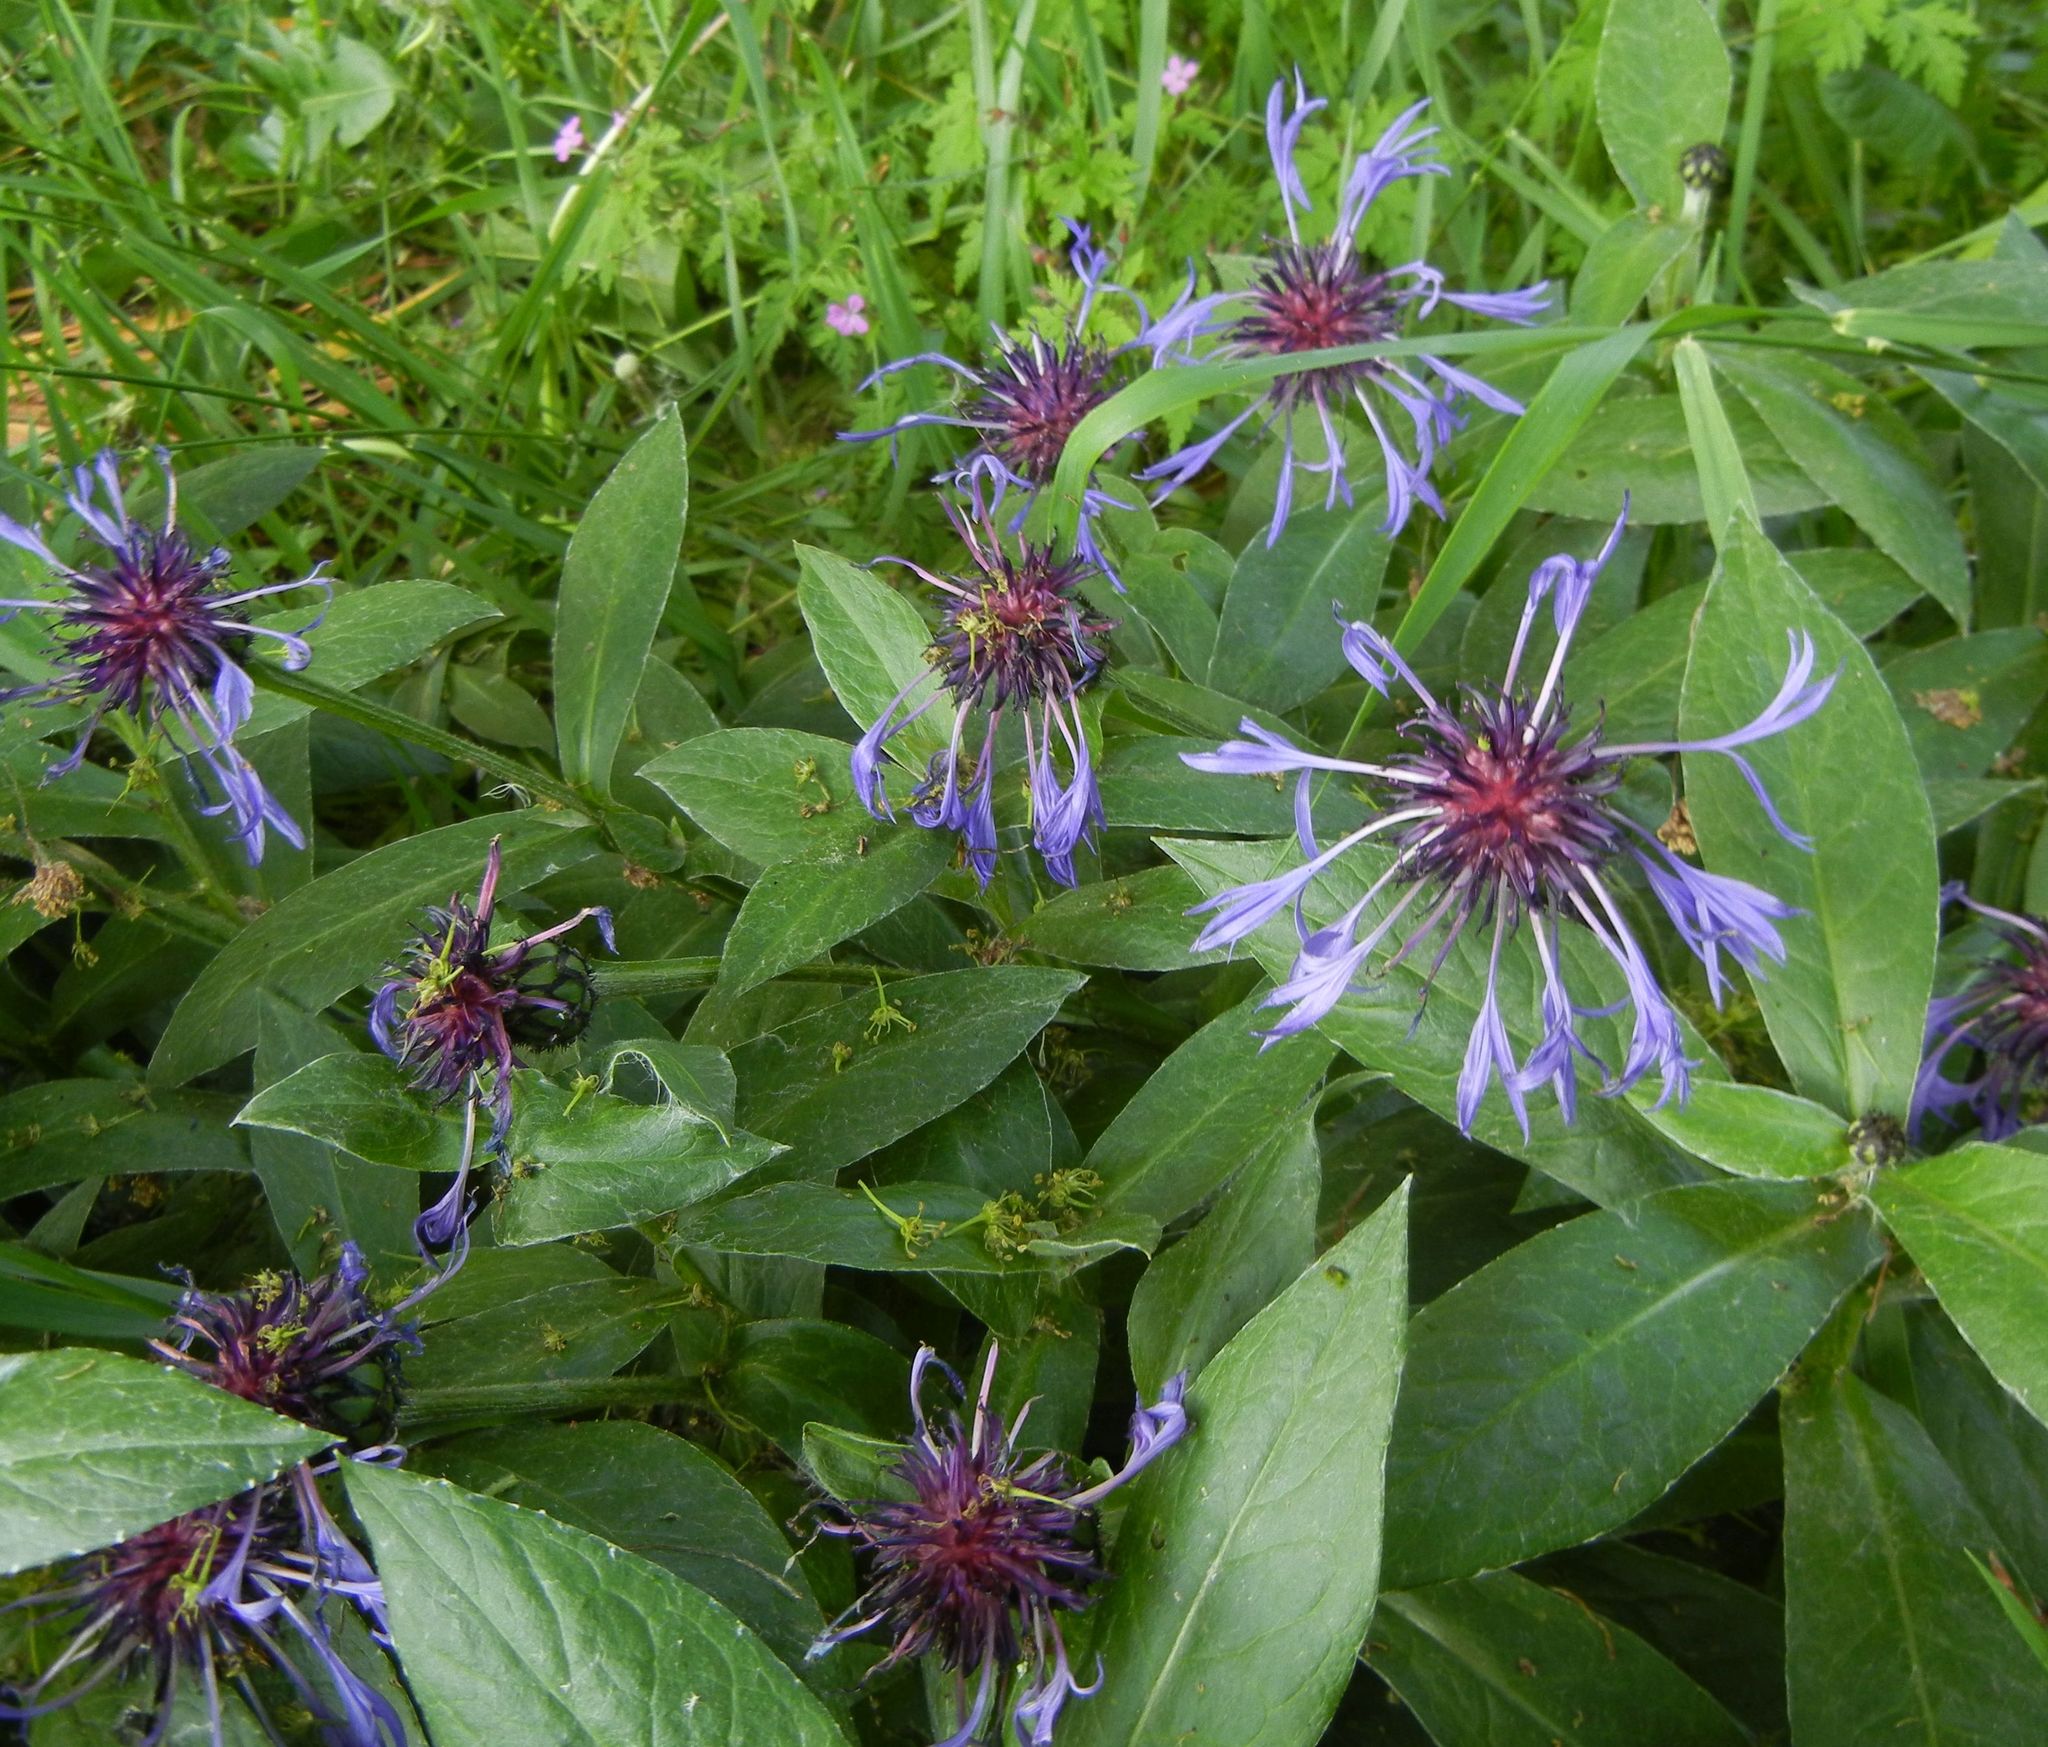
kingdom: Plantae
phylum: Tracheophyta
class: Magnoliopsida
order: Asterales
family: Asteraceae
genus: Centaurea
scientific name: Centaurea montana
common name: Perennial cornflower
